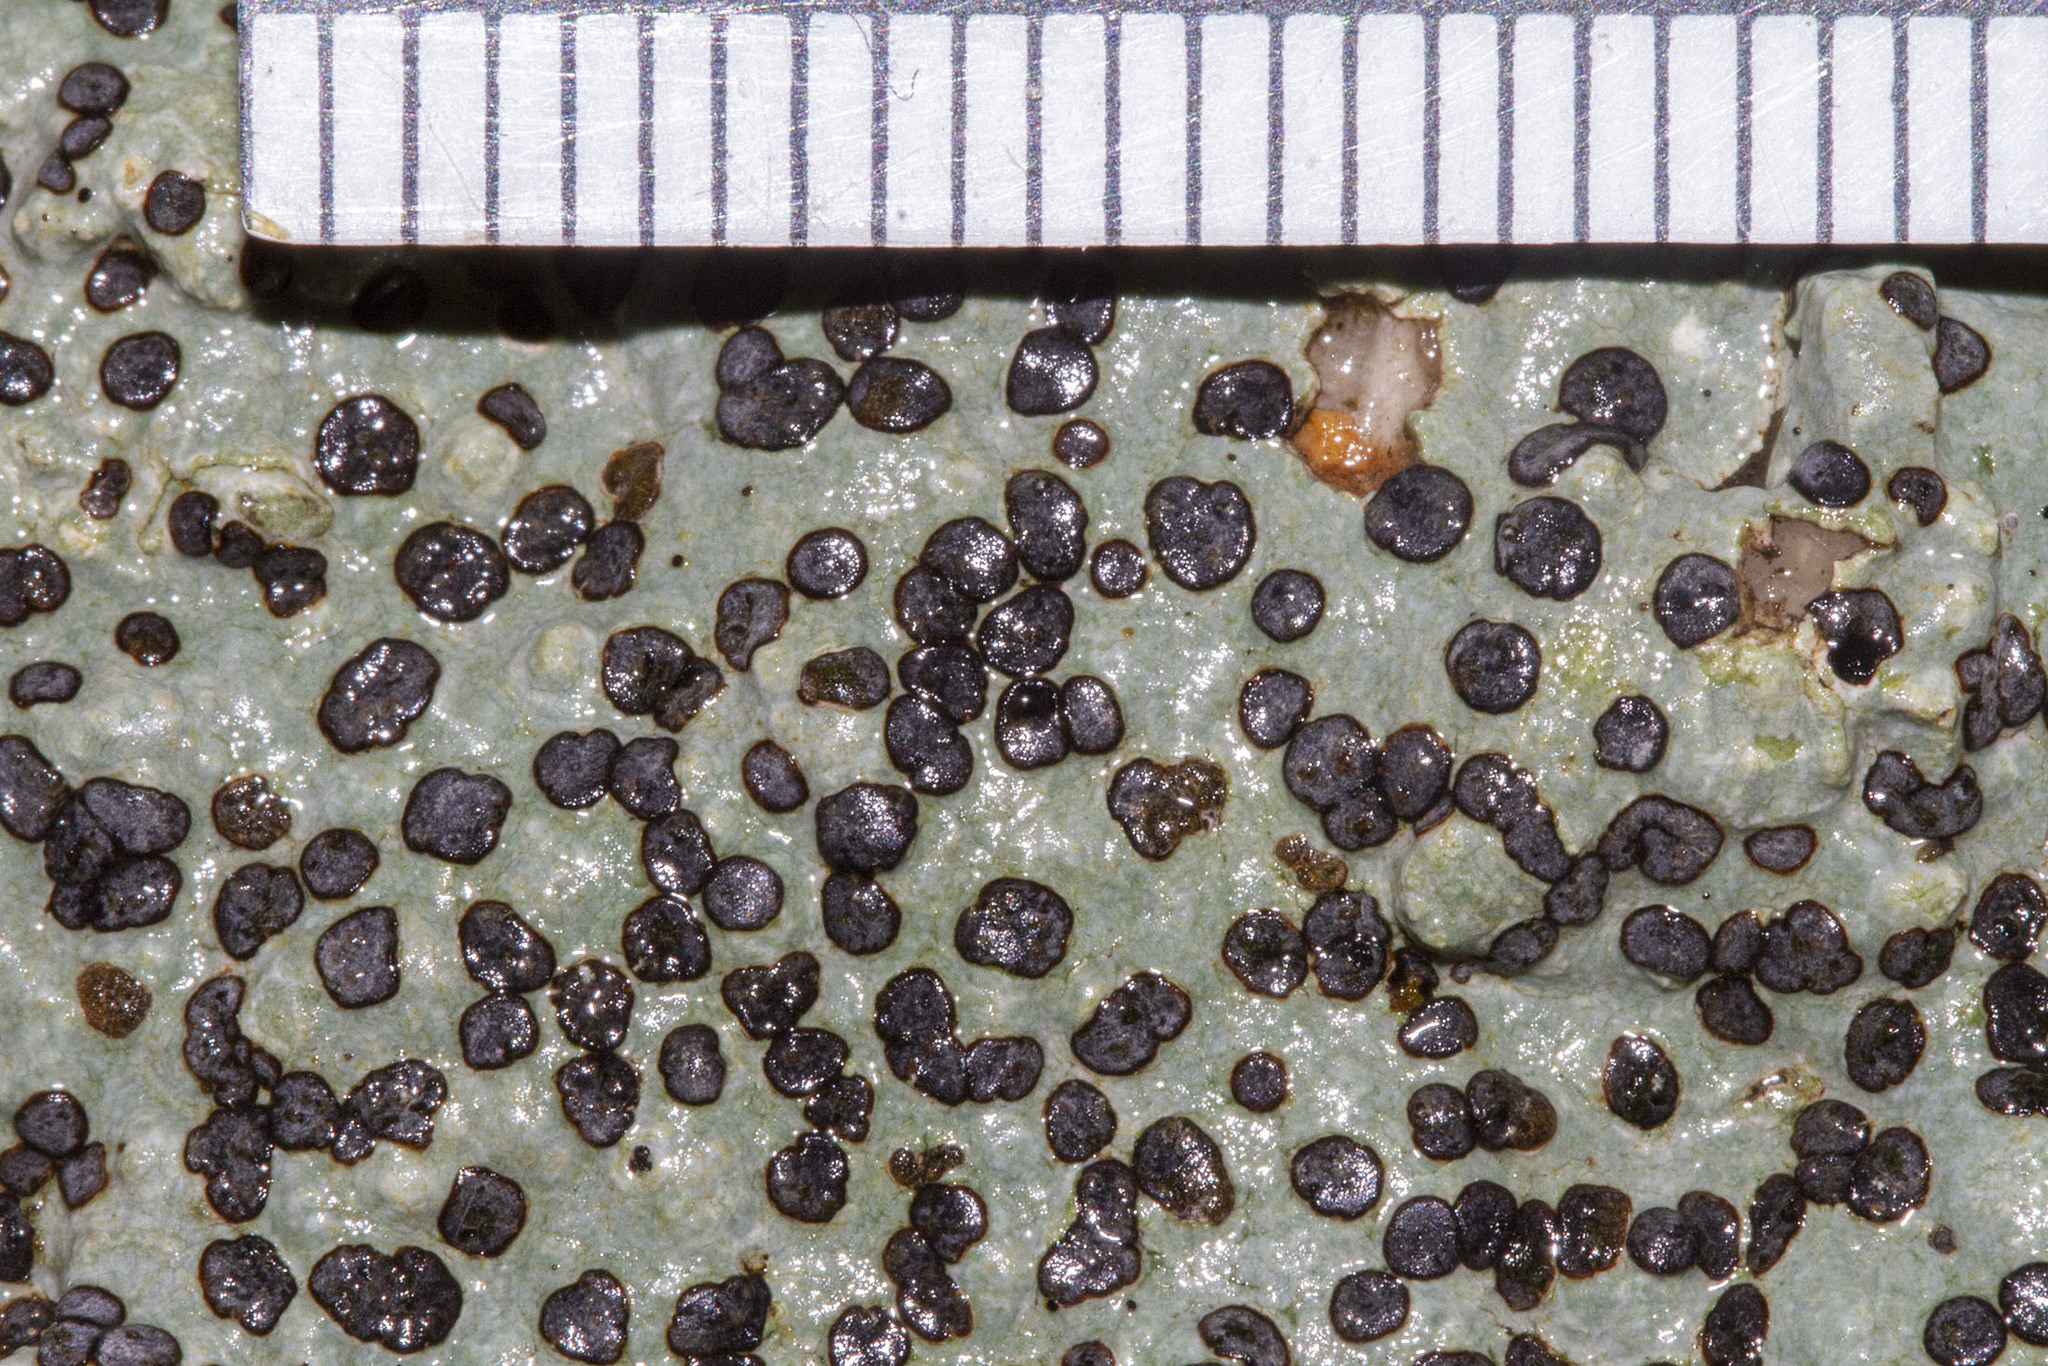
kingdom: Fungi
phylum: Ascomycota
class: Lecanoromycetes
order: Lecideales
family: Lecideaceae
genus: Porpidia
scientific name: Porpidia albocaerulescens
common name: Smokey-eyed boulder lichen
